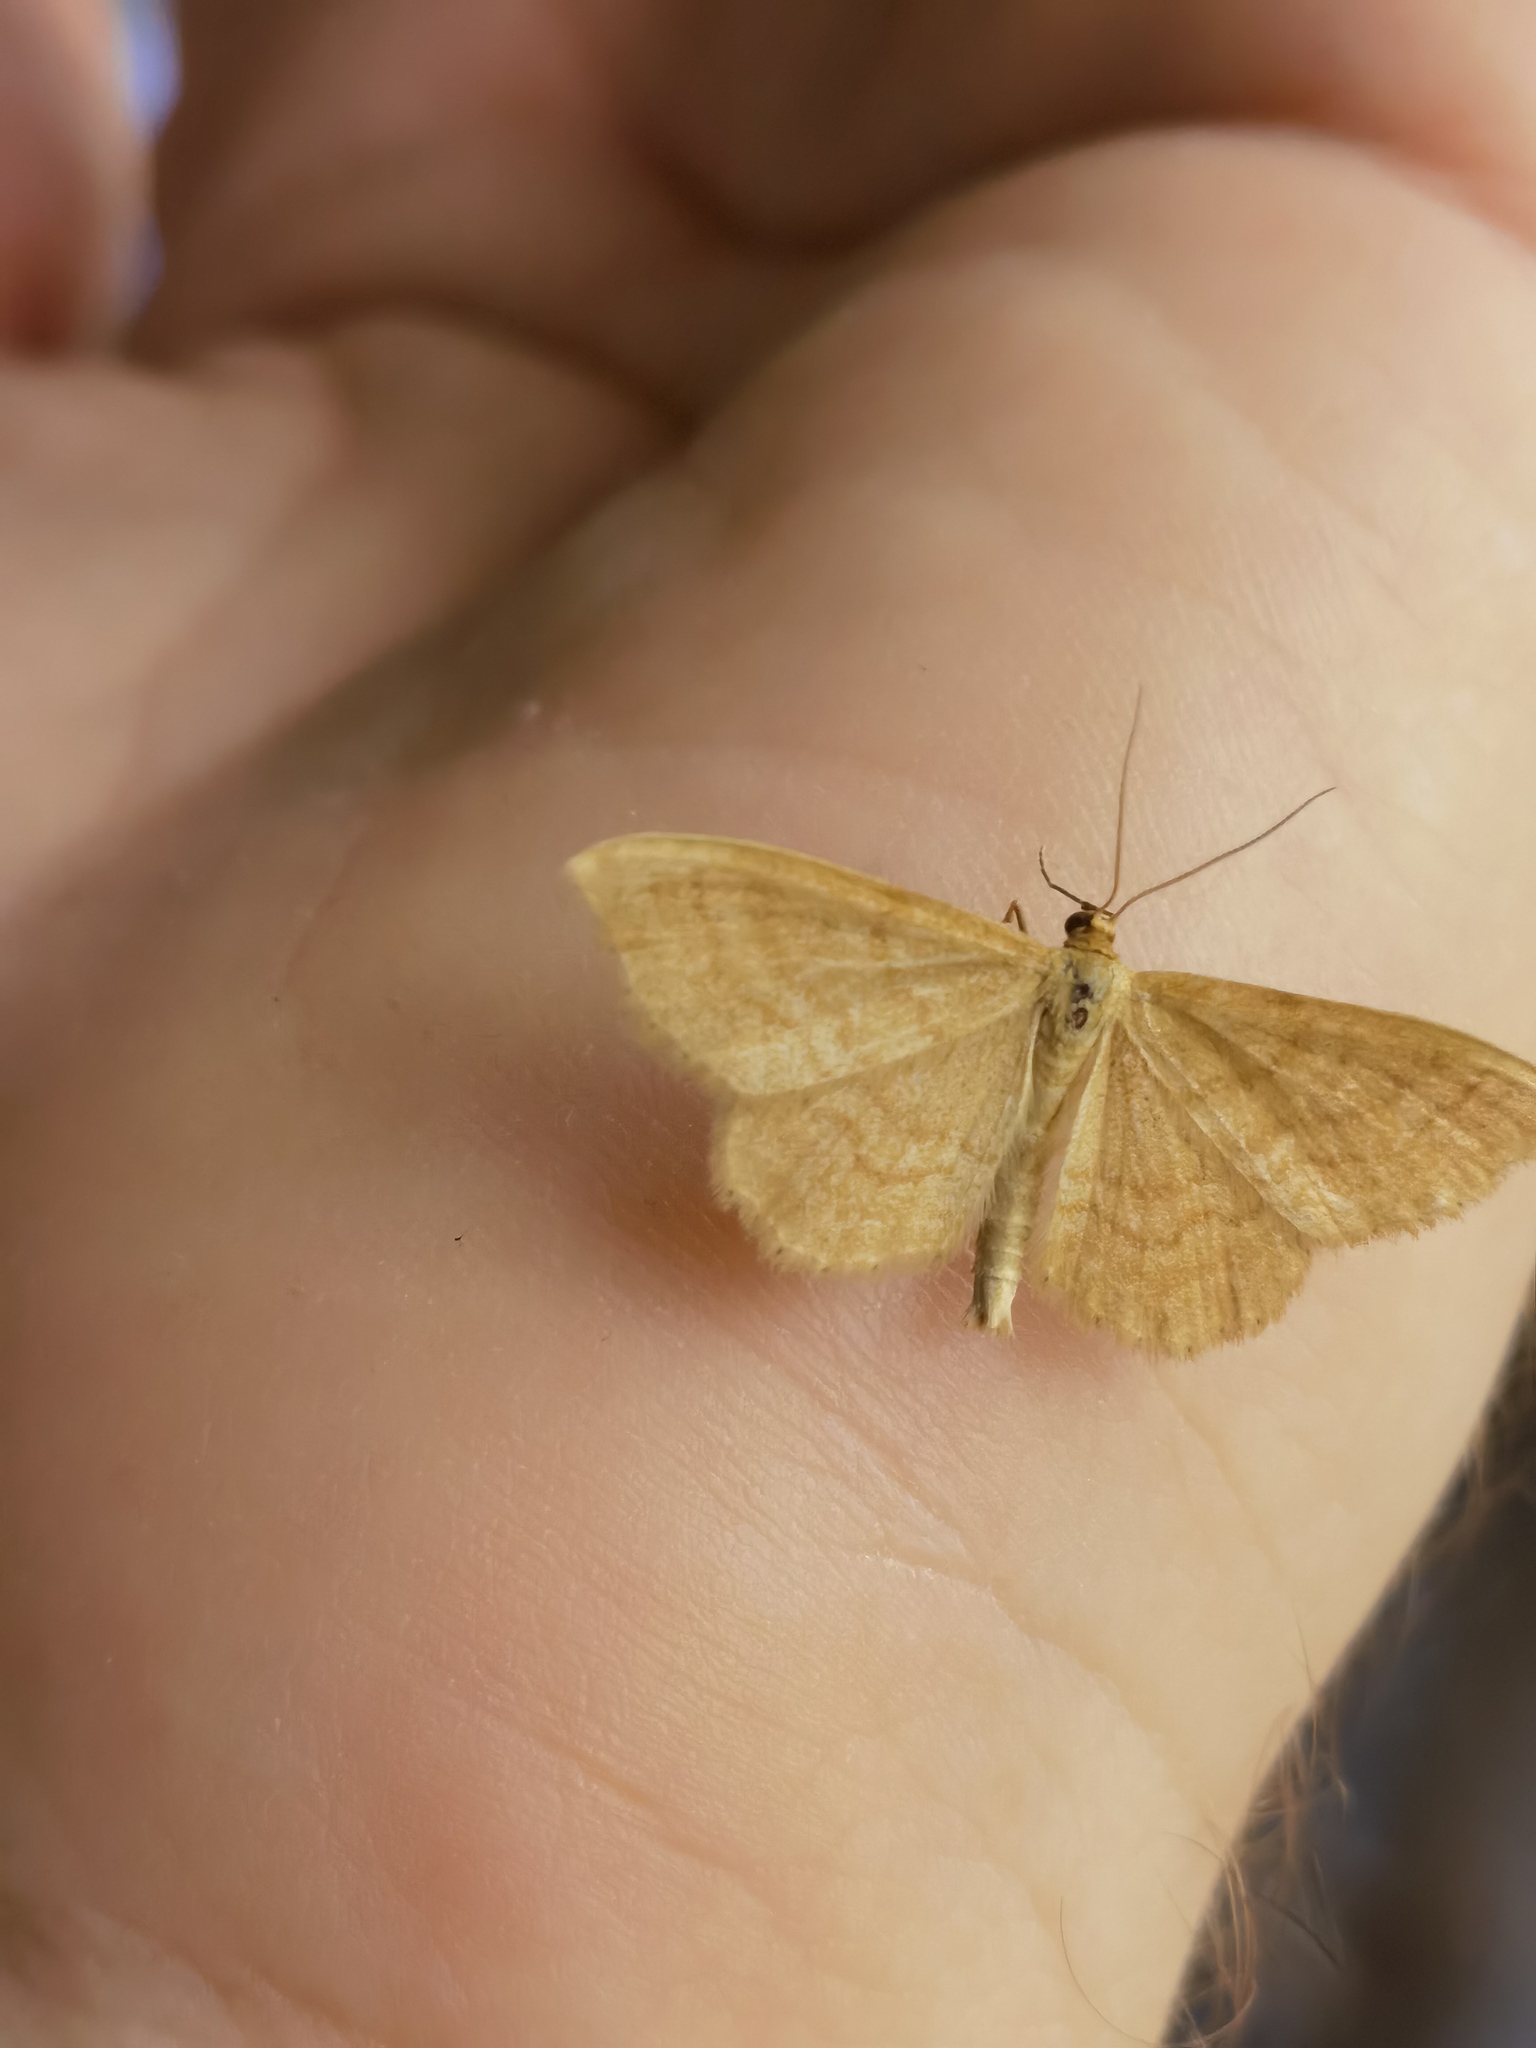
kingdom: Animalia
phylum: Arthropoda
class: Insecta
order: Lepidoptera
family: Geometridae
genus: Idaea
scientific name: Idaea ochrata
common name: Bright wave
